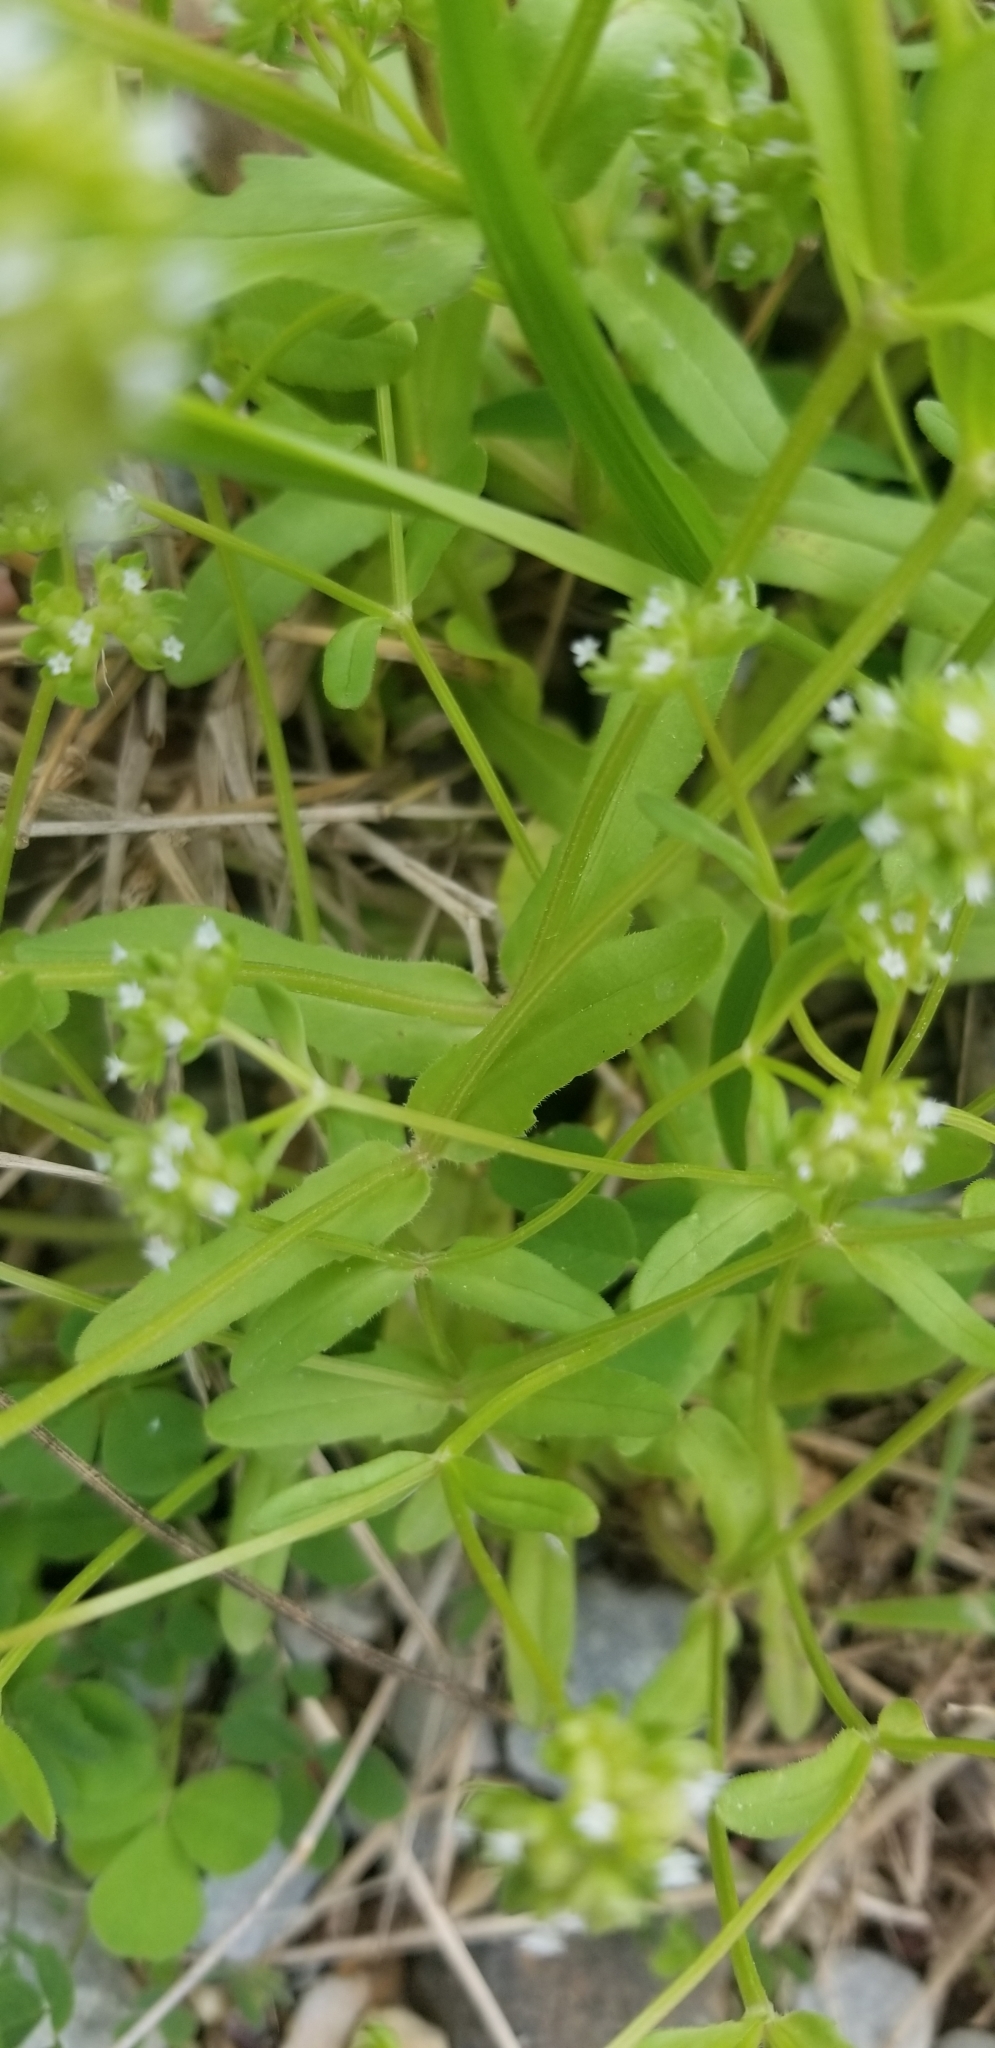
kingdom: Plantae
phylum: Tracheophyta
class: Magnoliopsida
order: Dipsacales
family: Caprifoliaceae
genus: Valerianella
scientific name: Valerianella locusta
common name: Common cornsalad
